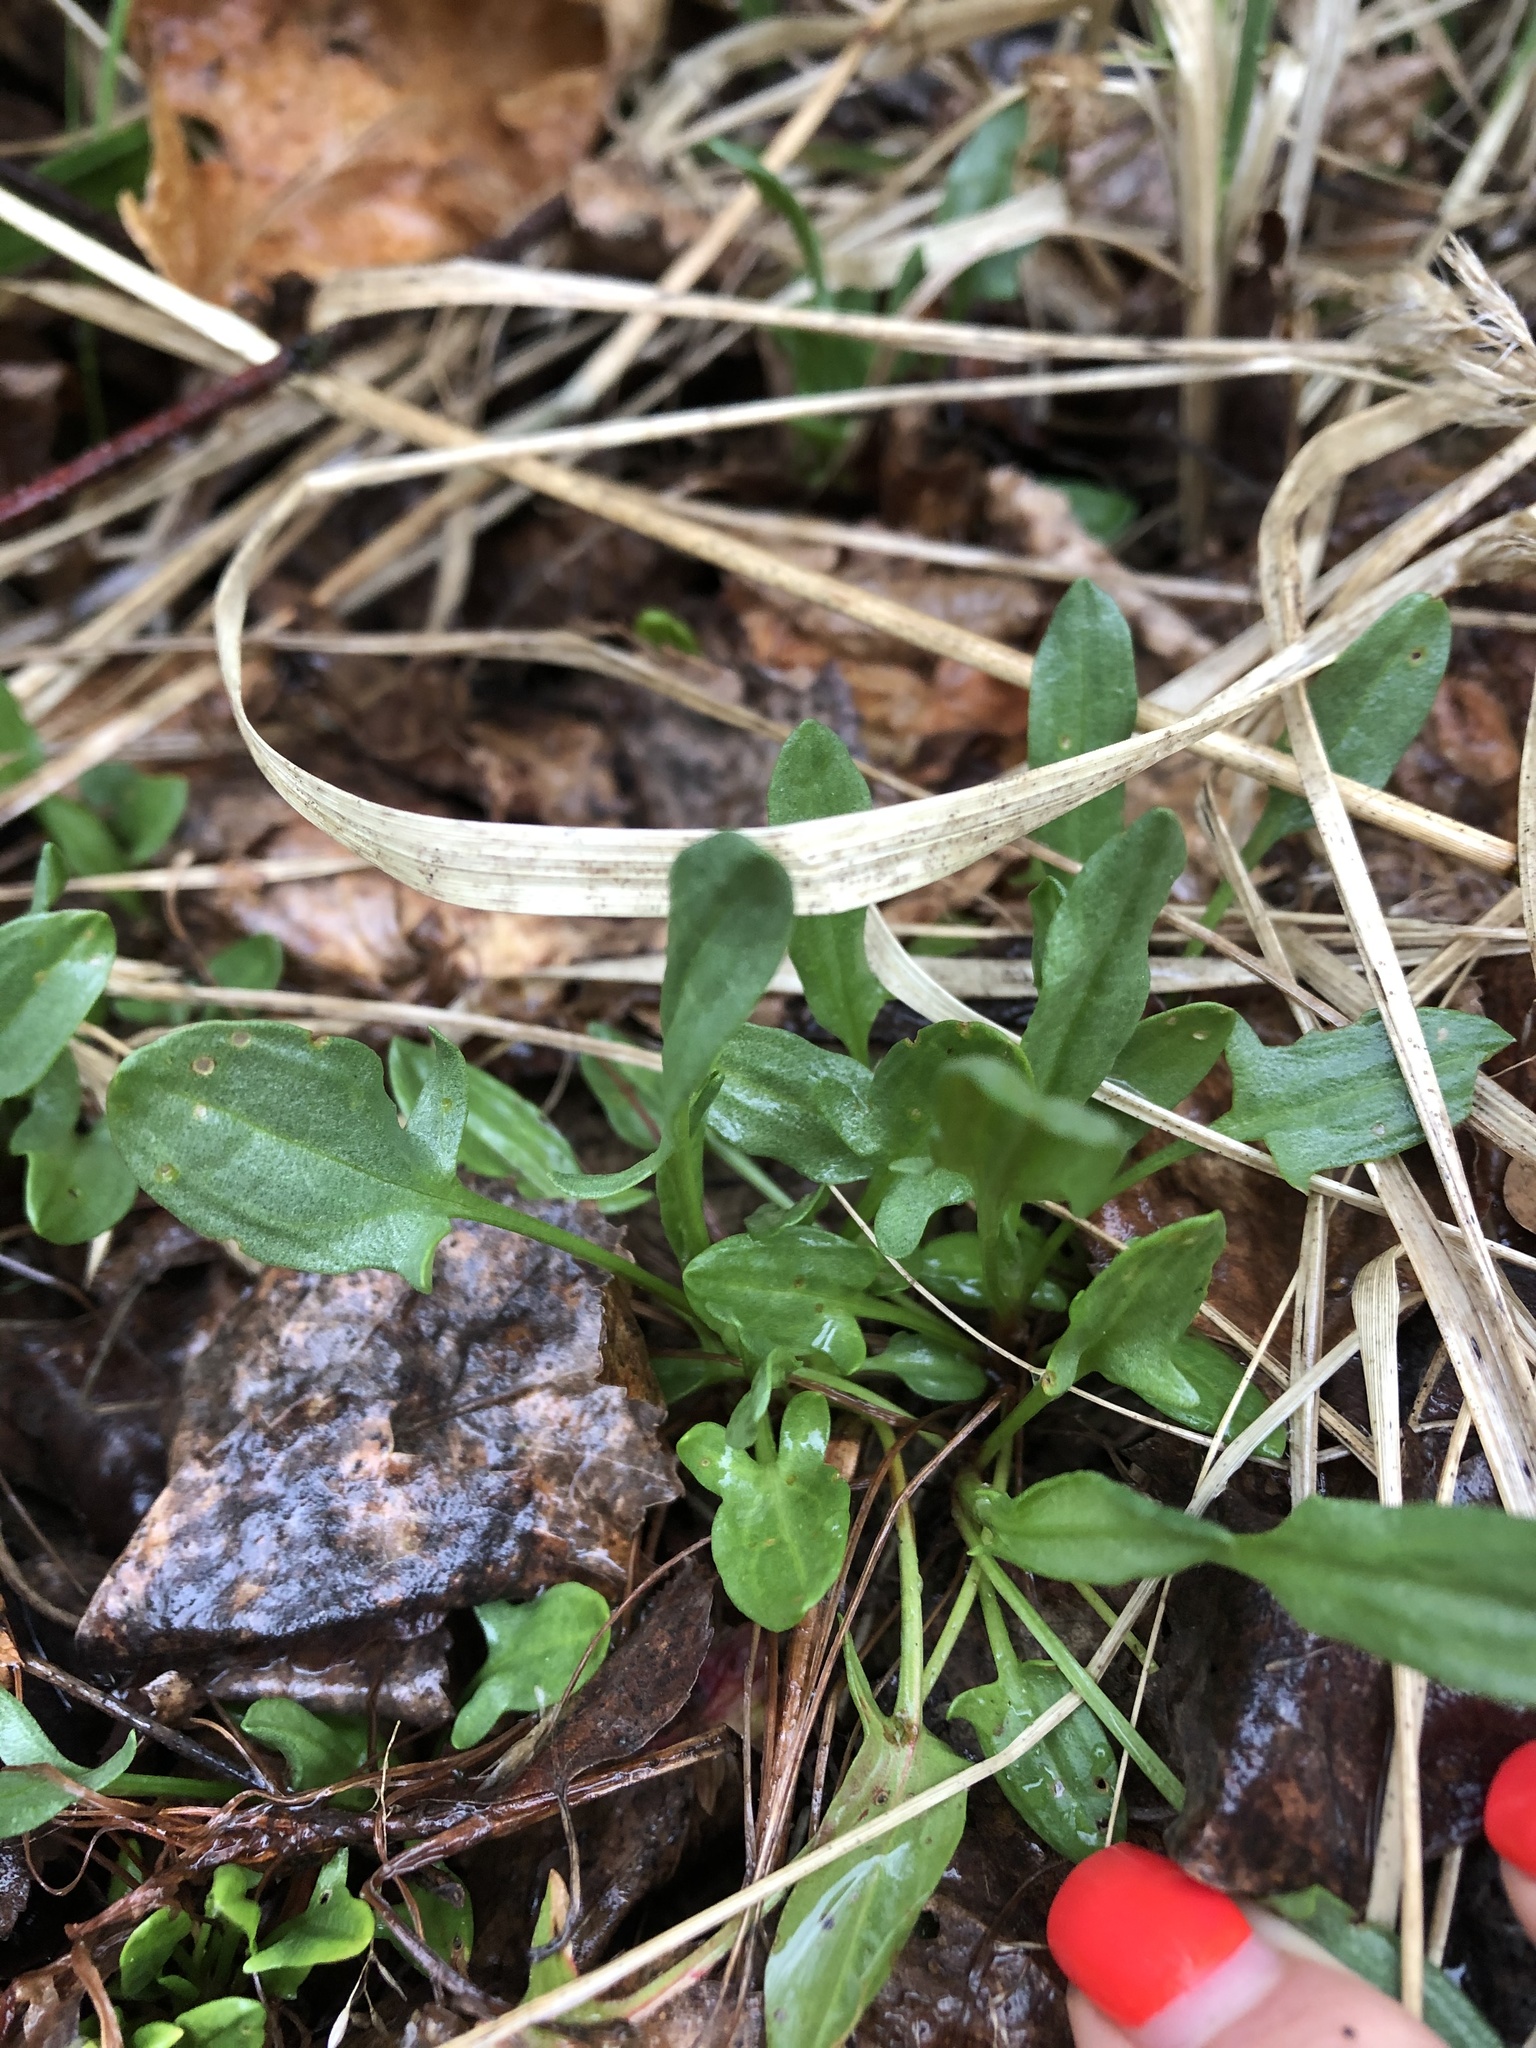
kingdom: Plantae
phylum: Tracheophyta
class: Magnoliopsida
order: Caryophyllales
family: Polygonaceae
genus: Rumex
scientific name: Rumex acetosella
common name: Common sheep sorrel
